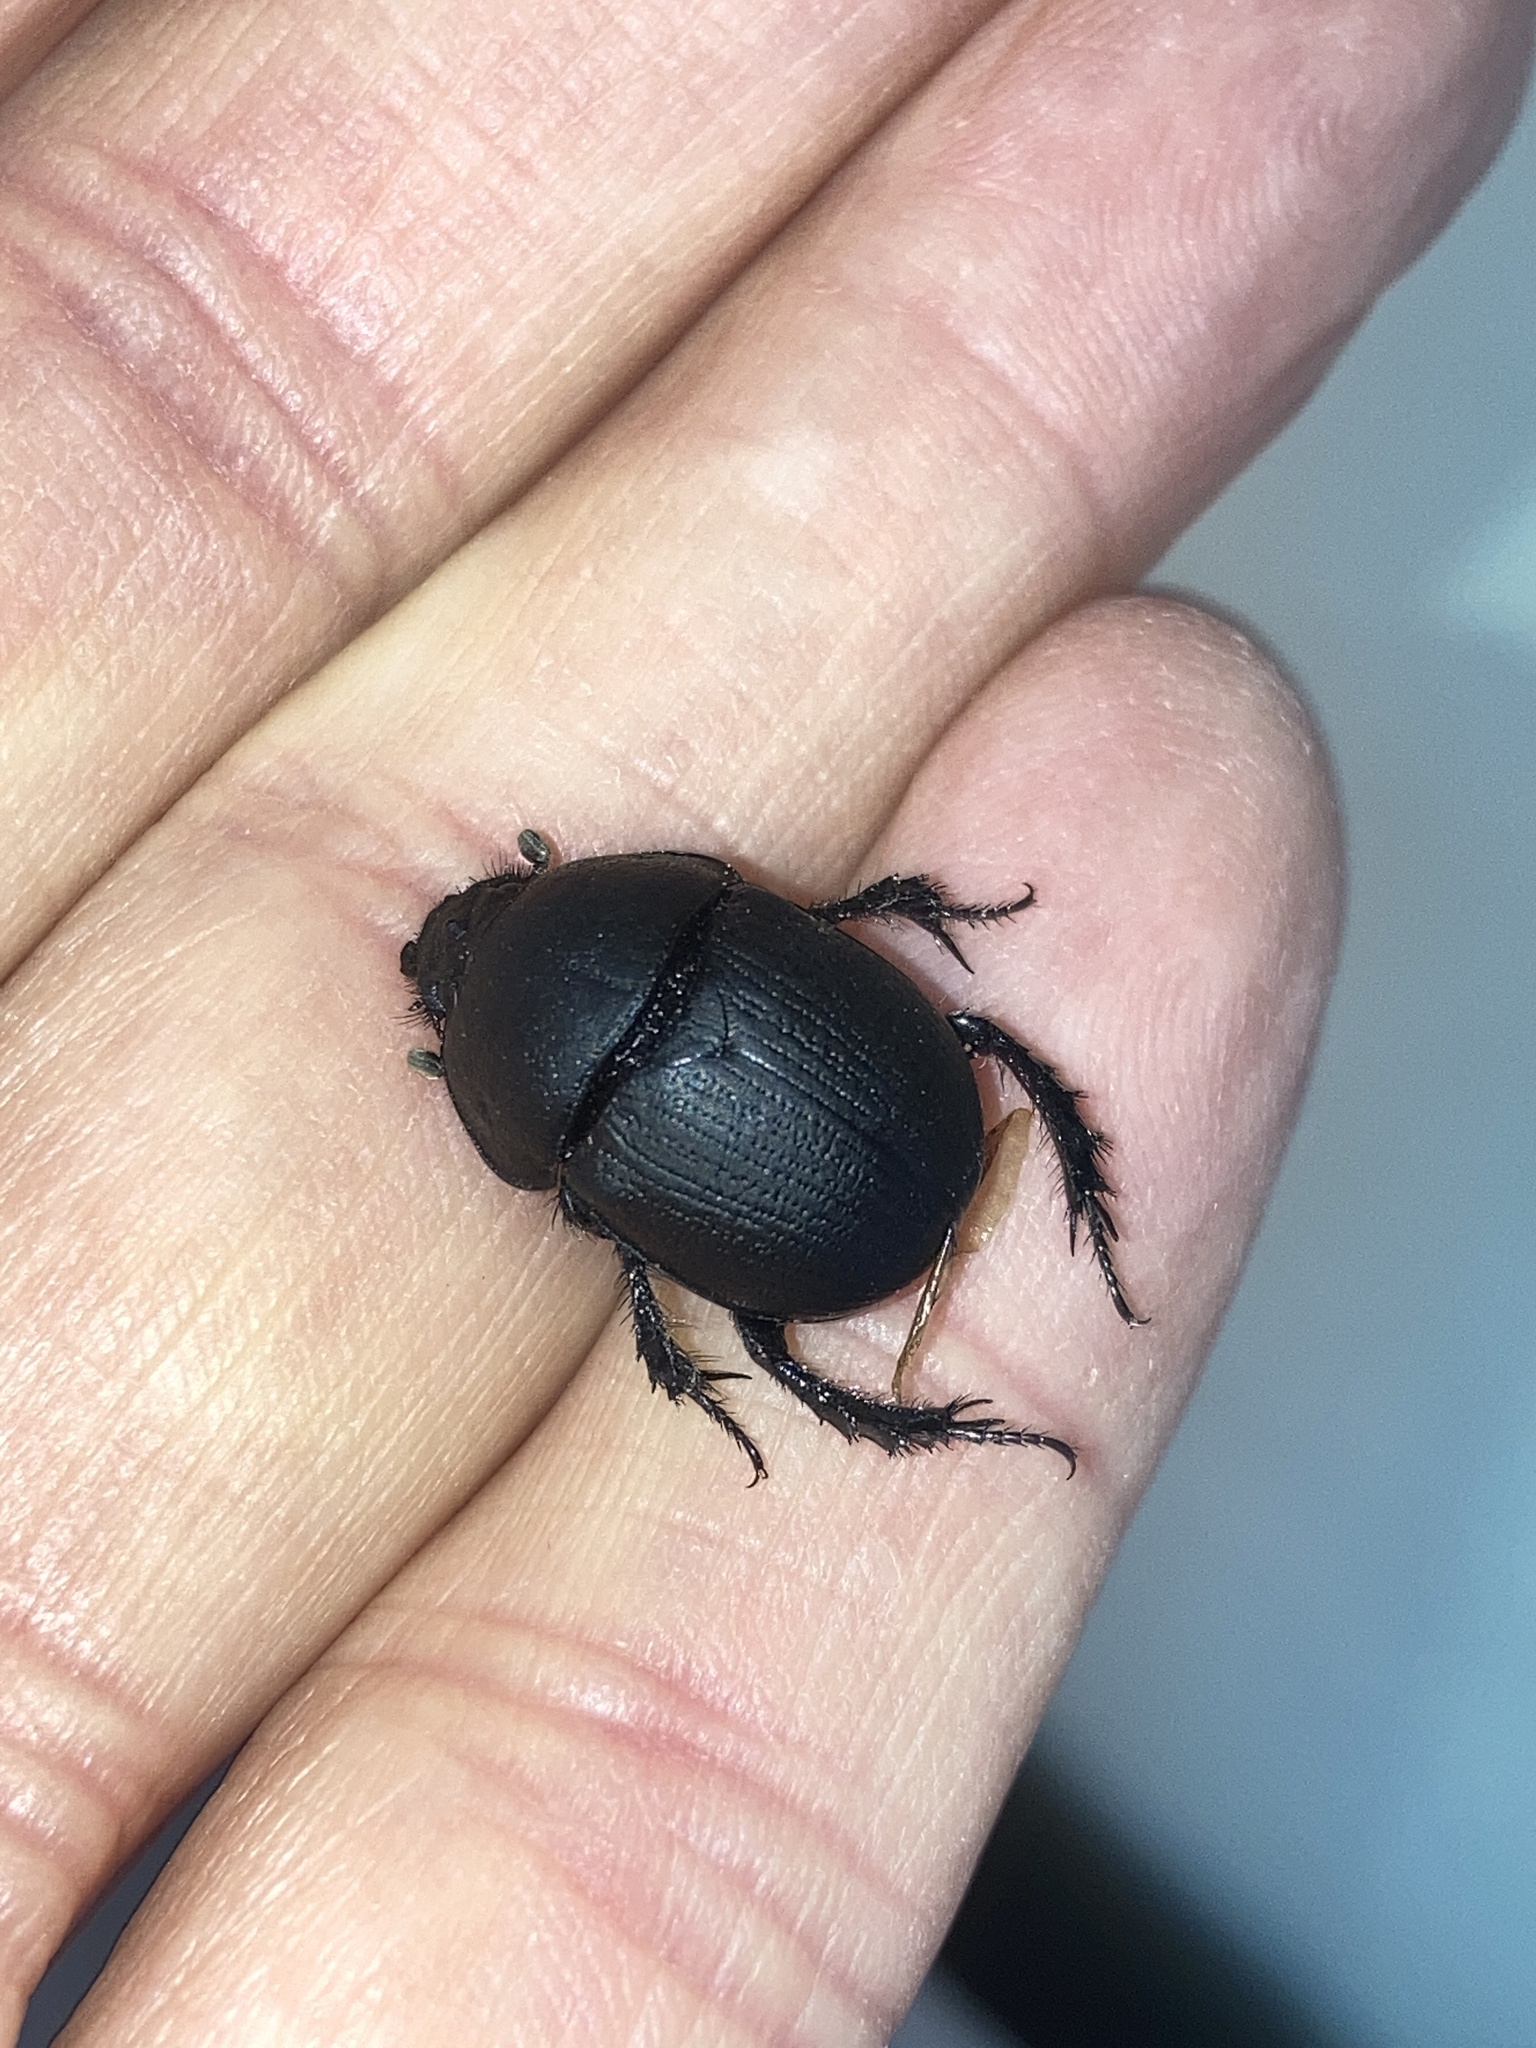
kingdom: Animalia
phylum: Arthropoda
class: Insecta
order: Coleoptera
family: Geotrupidae
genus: Geohowdenius
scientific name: Geohowdenius opacus
